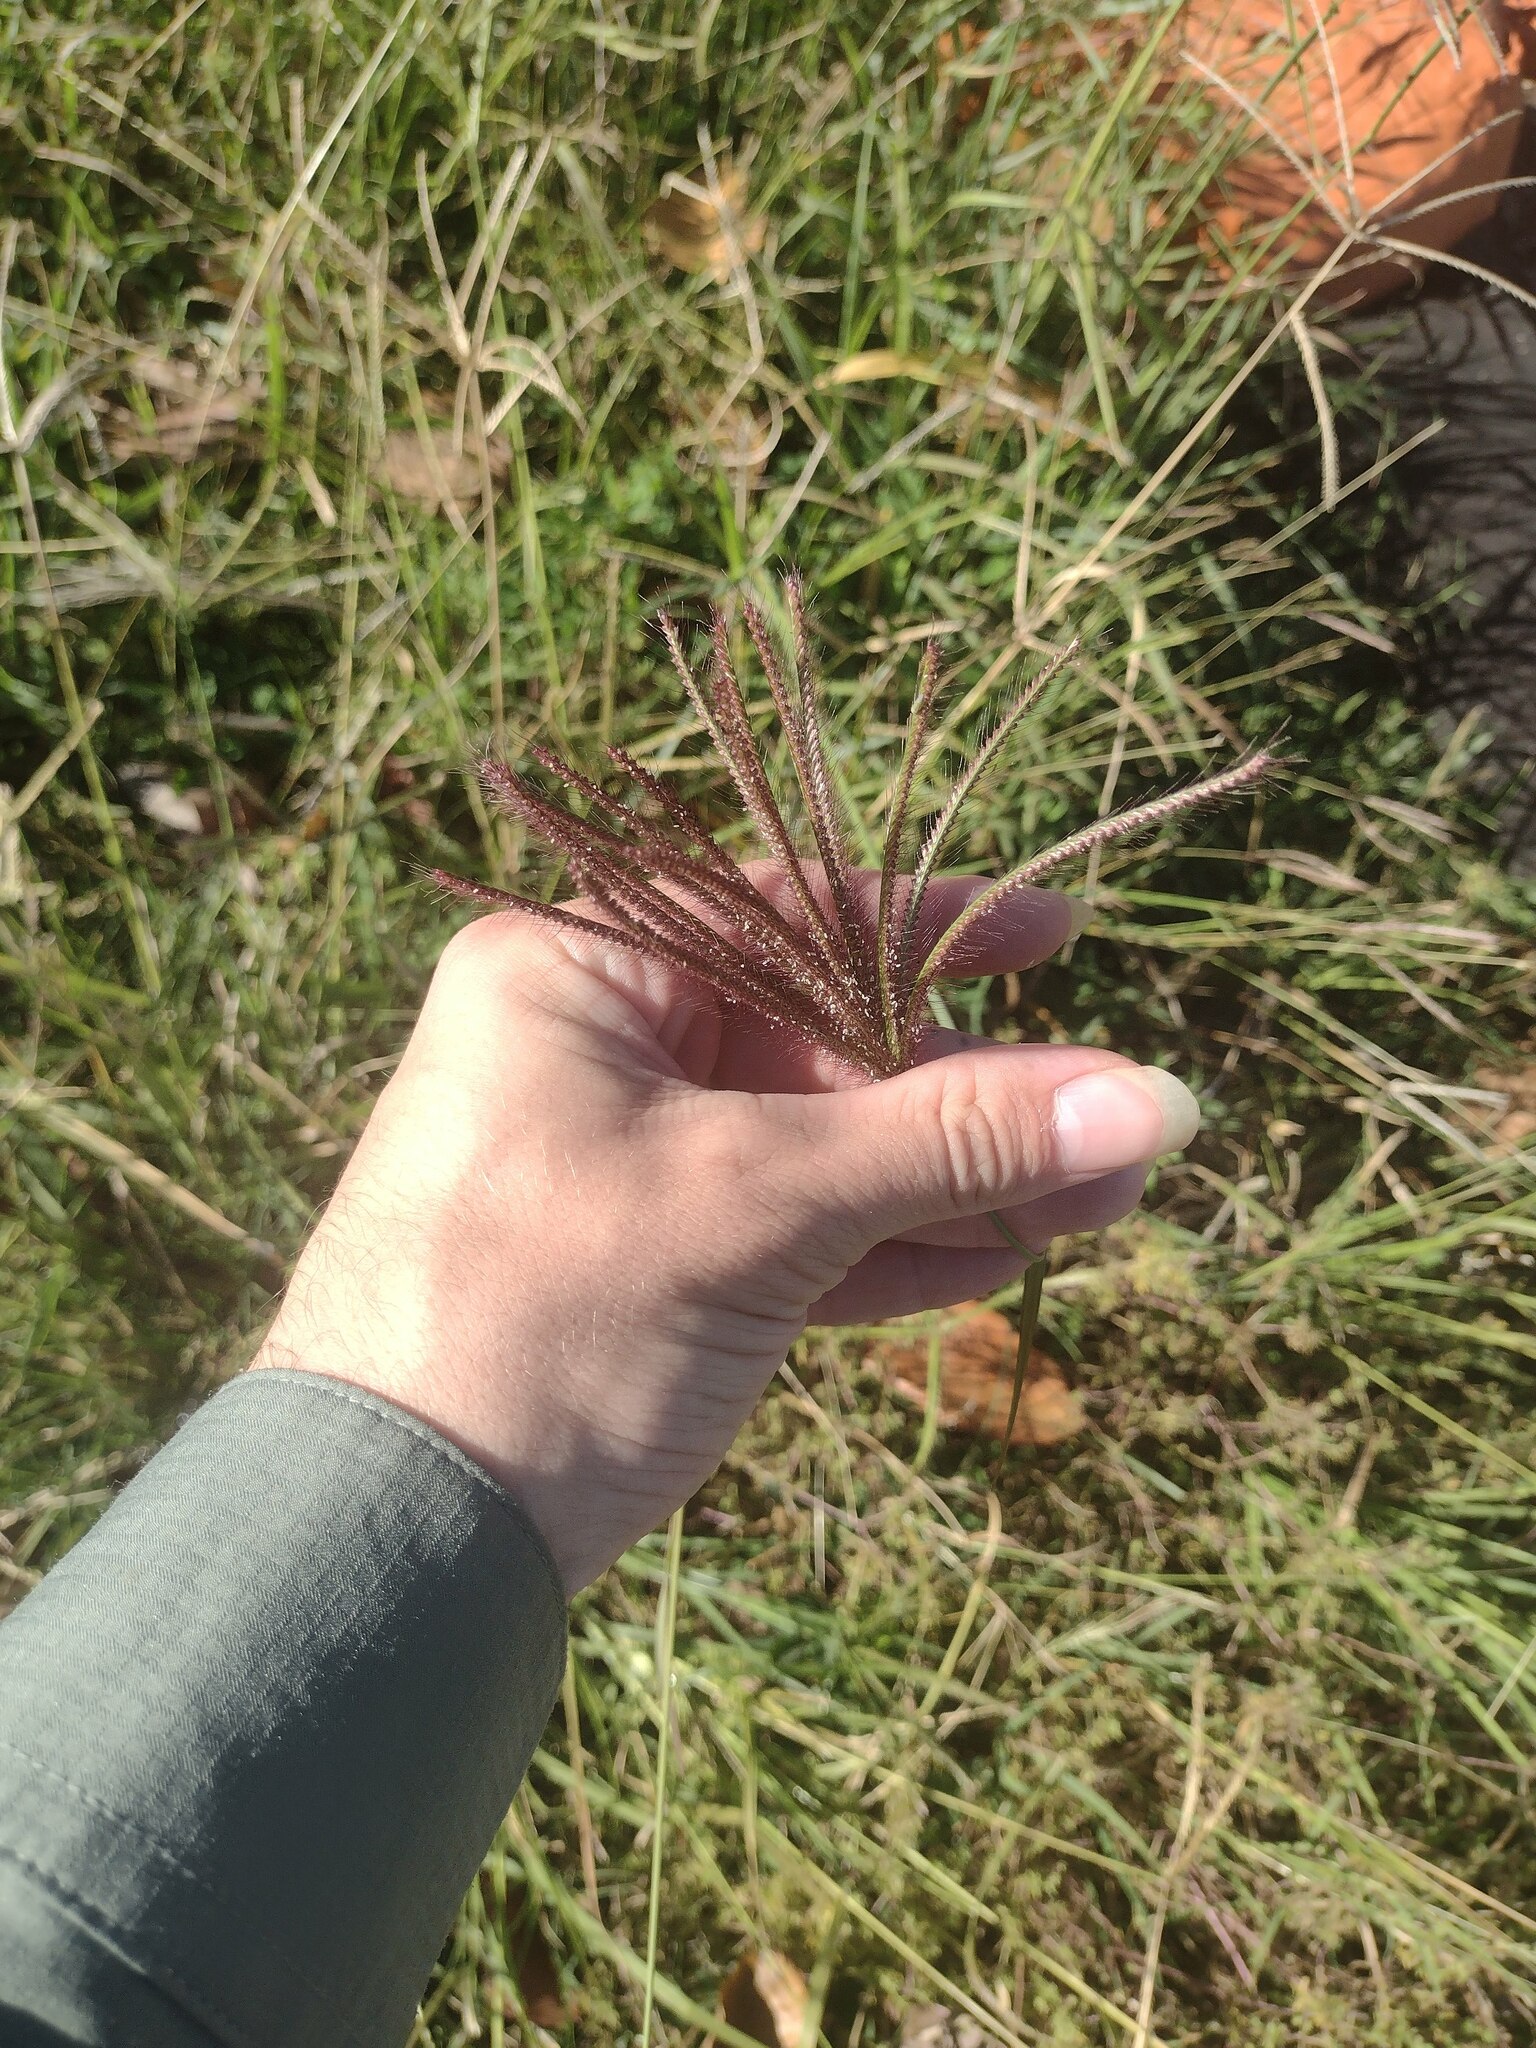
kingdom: Plantae
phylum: Tracheophyta
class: Liliopsida
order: Poales
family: Poaceae
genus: Chloris
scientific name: Chloris barbata
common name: Swollen fingergrass
